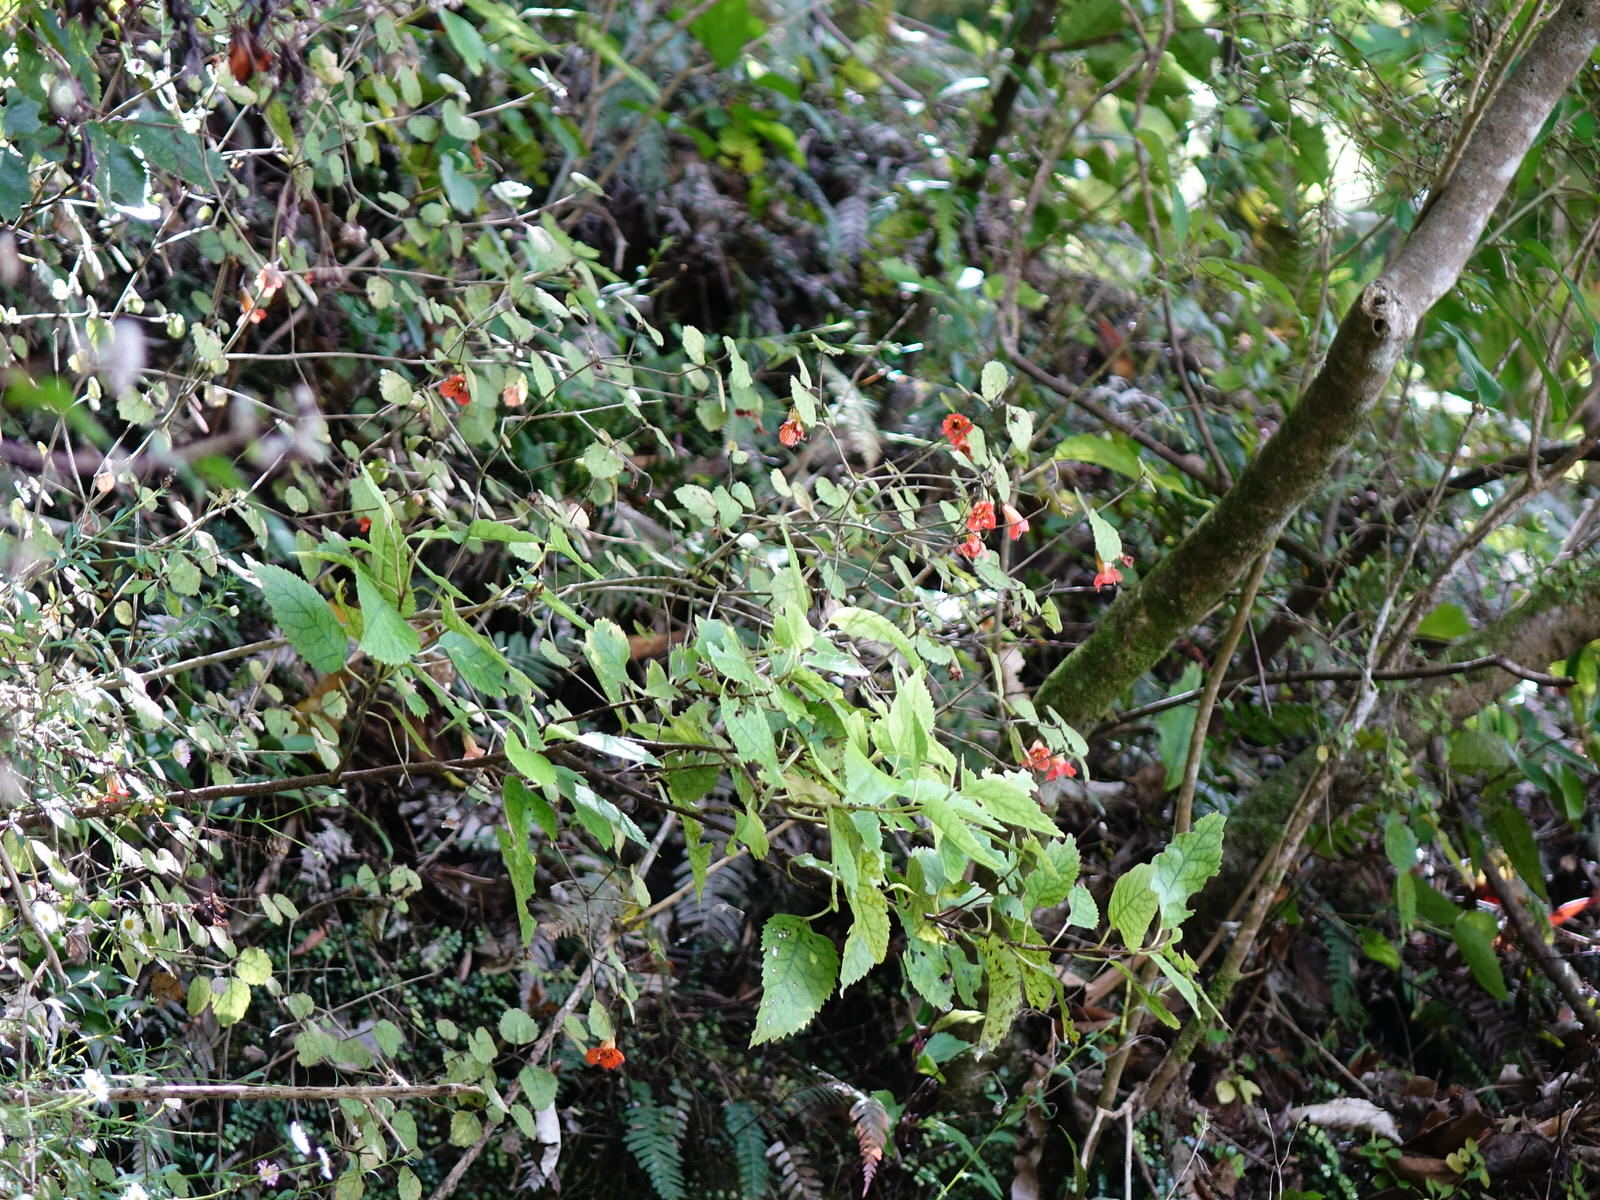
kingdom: Plantae
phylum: Tracheophyta
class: Magnoliopsida
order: Lamiales
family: Gesneriaceae
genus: Rhabdothamnus
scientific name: Rhabdothamnus solandri
